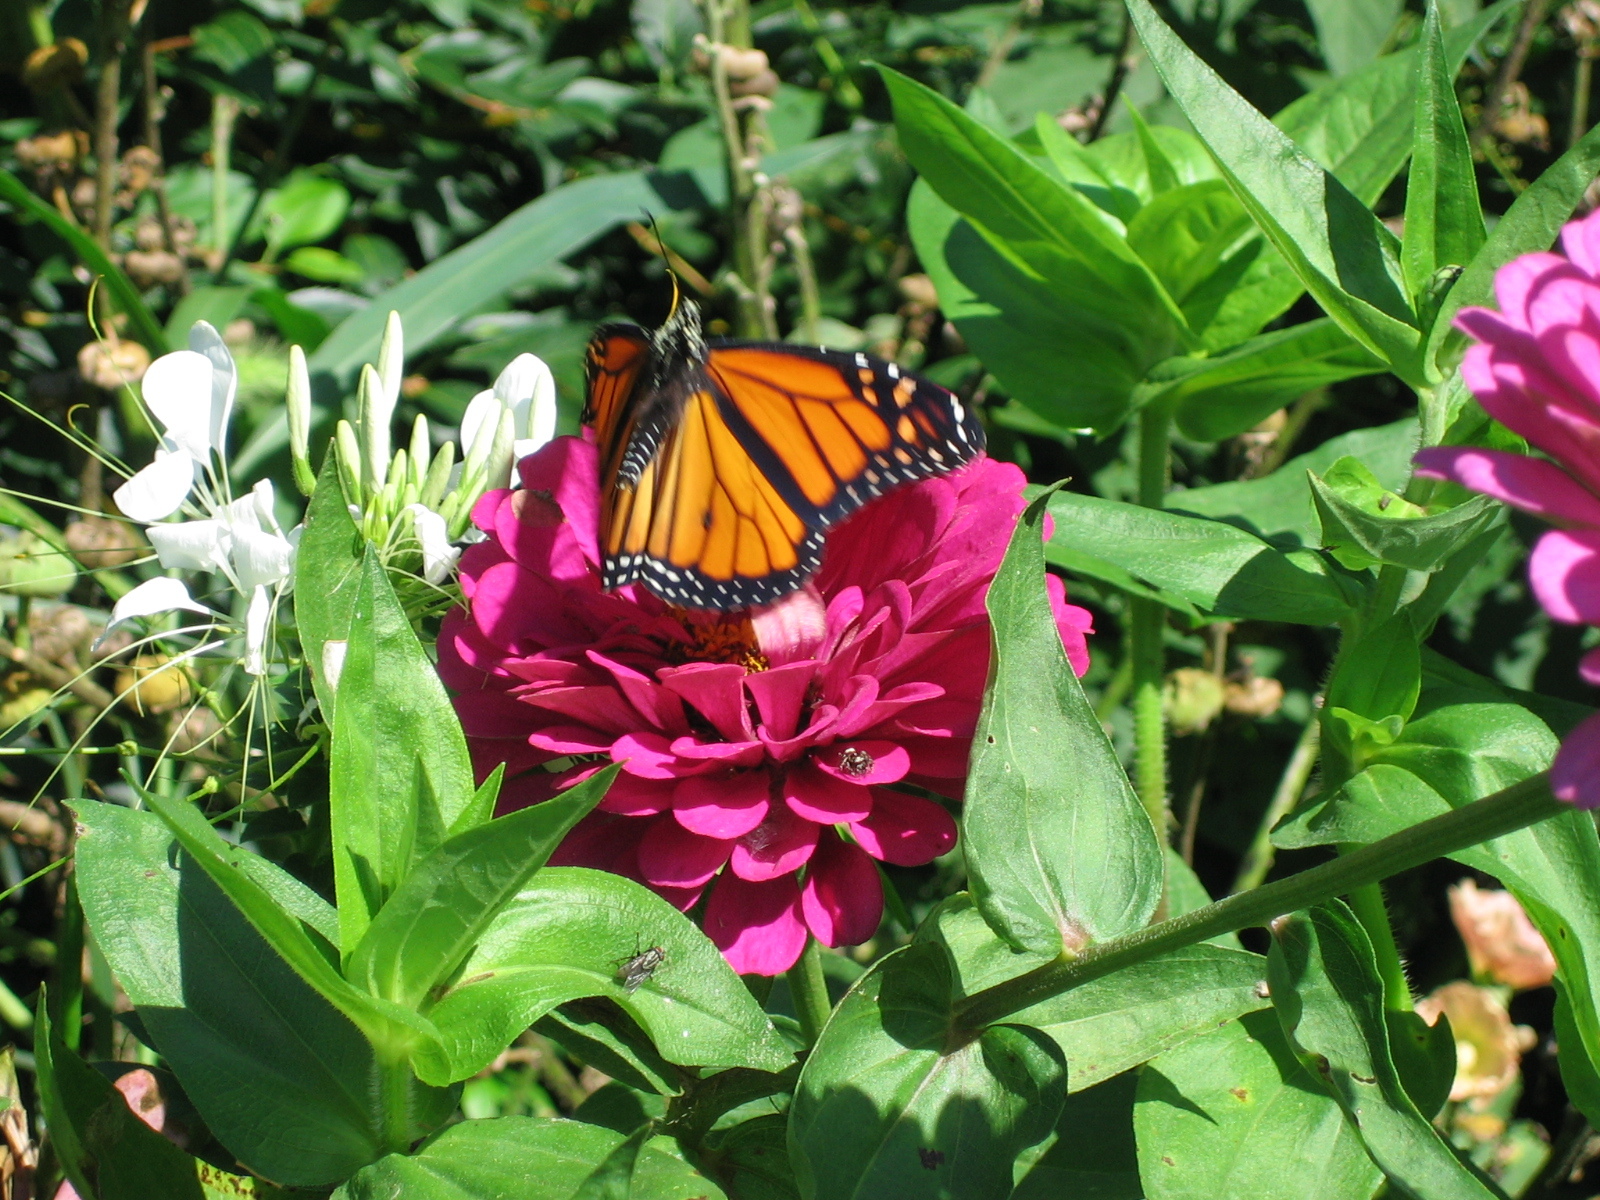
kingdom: Animalia
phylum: Arthropoda
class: Insecta
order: Lepidoptera
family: Nymphalidae
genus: Danaus
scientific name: Danaus plexippus
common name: Monarch
